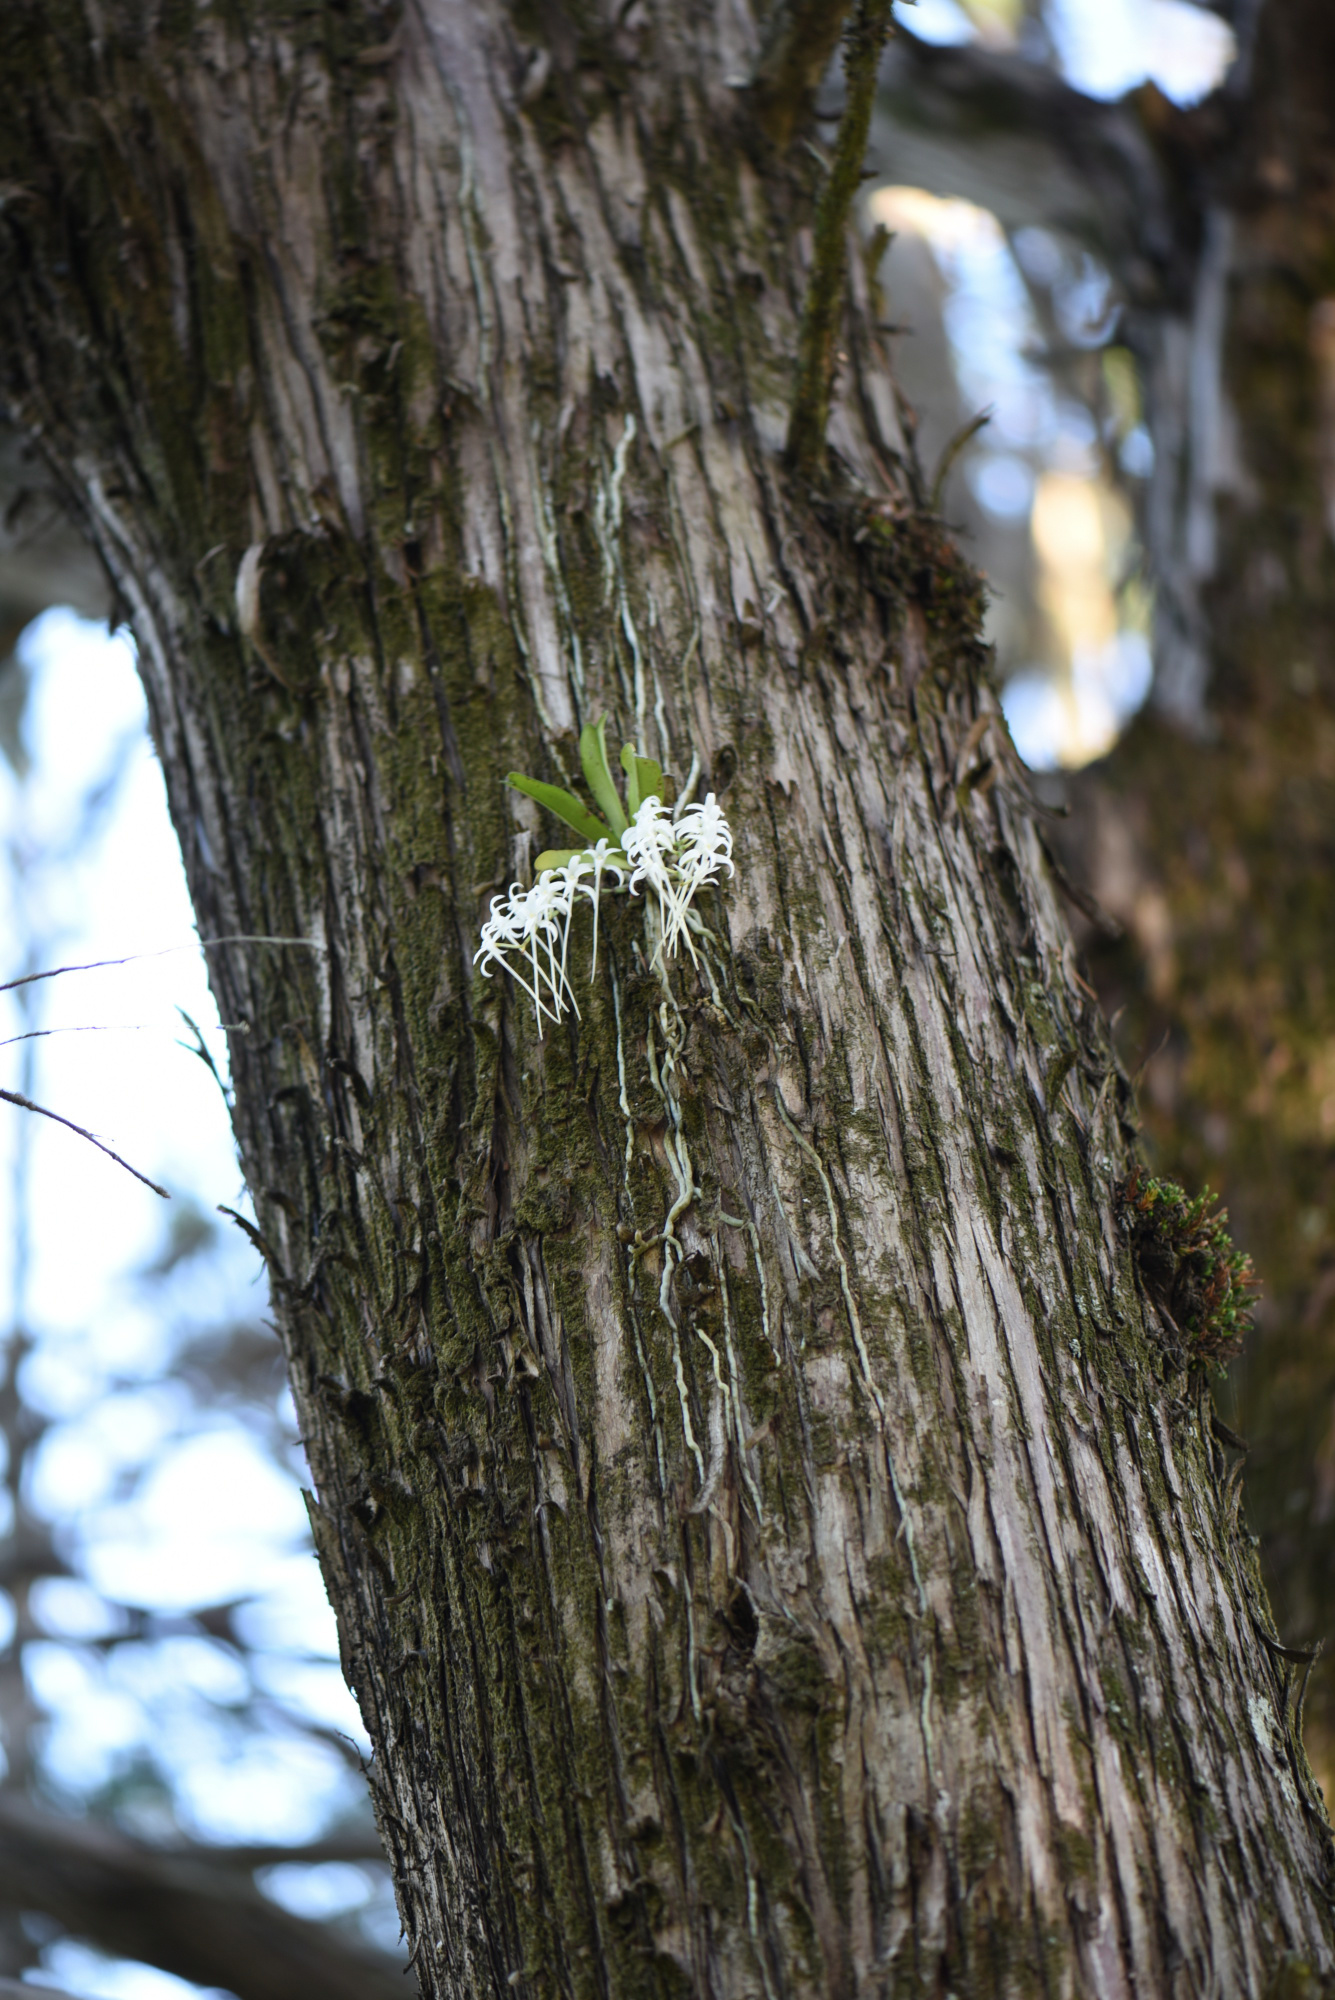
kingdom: Plantae
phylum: Tracheophyta
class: Liliopsida
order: Asparagales
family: Orchidaceae
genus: Mystacidium
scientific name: Mystacidium capense
